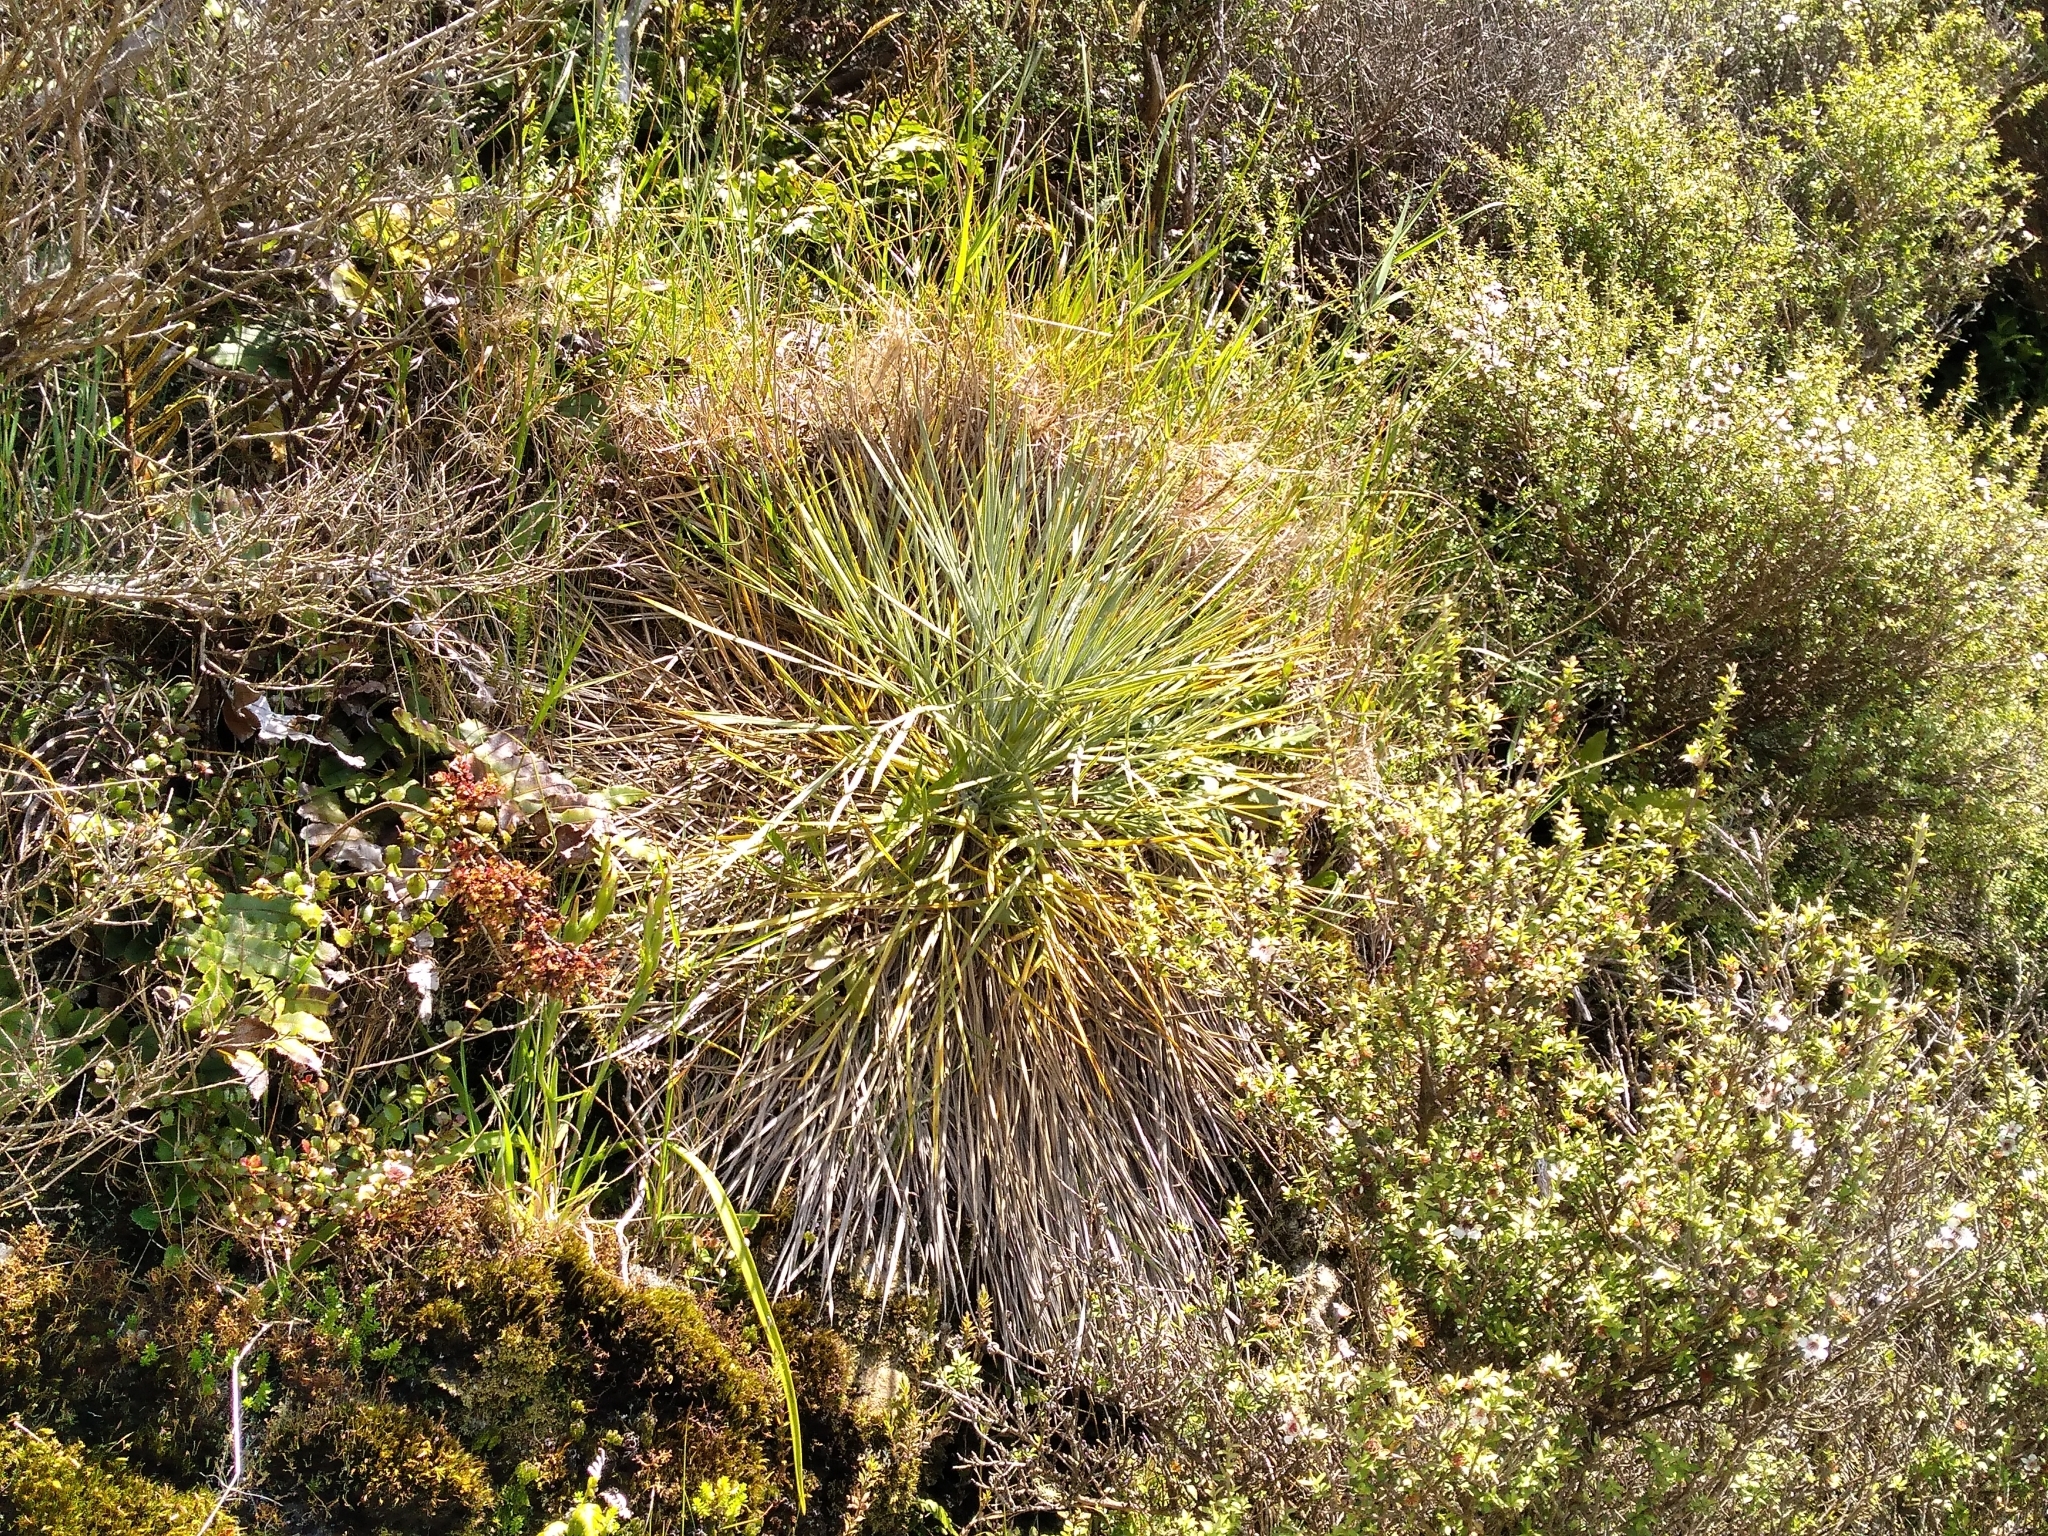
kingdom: Plantae
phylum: Tracheophyta
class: Magnoliopsida
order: Apiales
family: Apiaceae
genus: Aciphylla
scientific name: Aciphylla squarrosa
